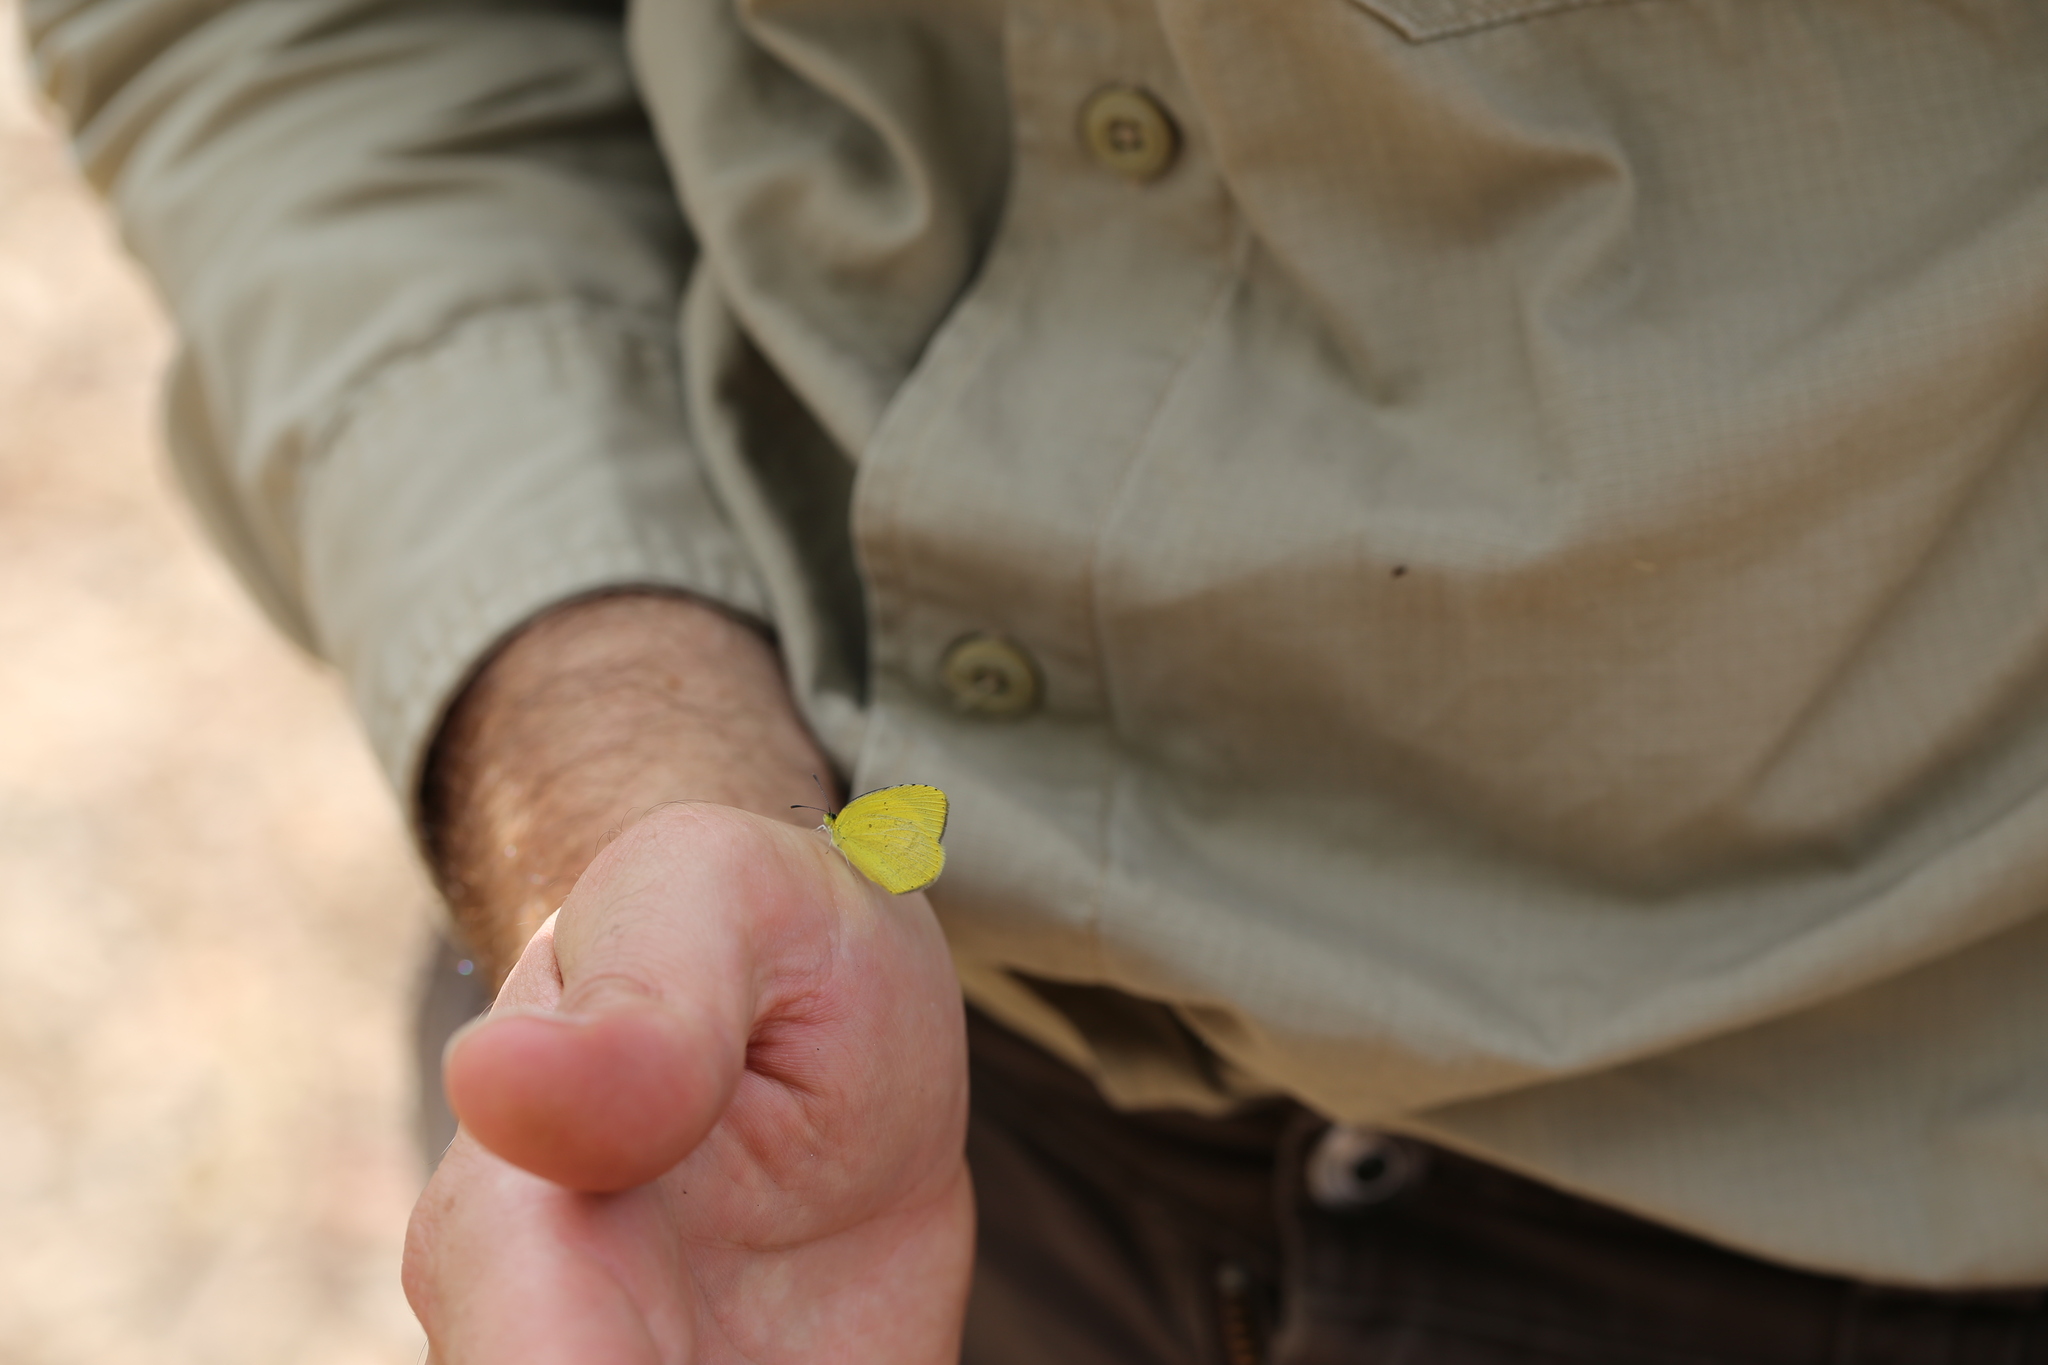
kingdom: Animalia
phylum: Arthropoda
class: Insecta
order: Lepidoptera
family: Pieridae
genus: Eurema
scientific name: Eurema brigitta
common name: Small grass yellow
